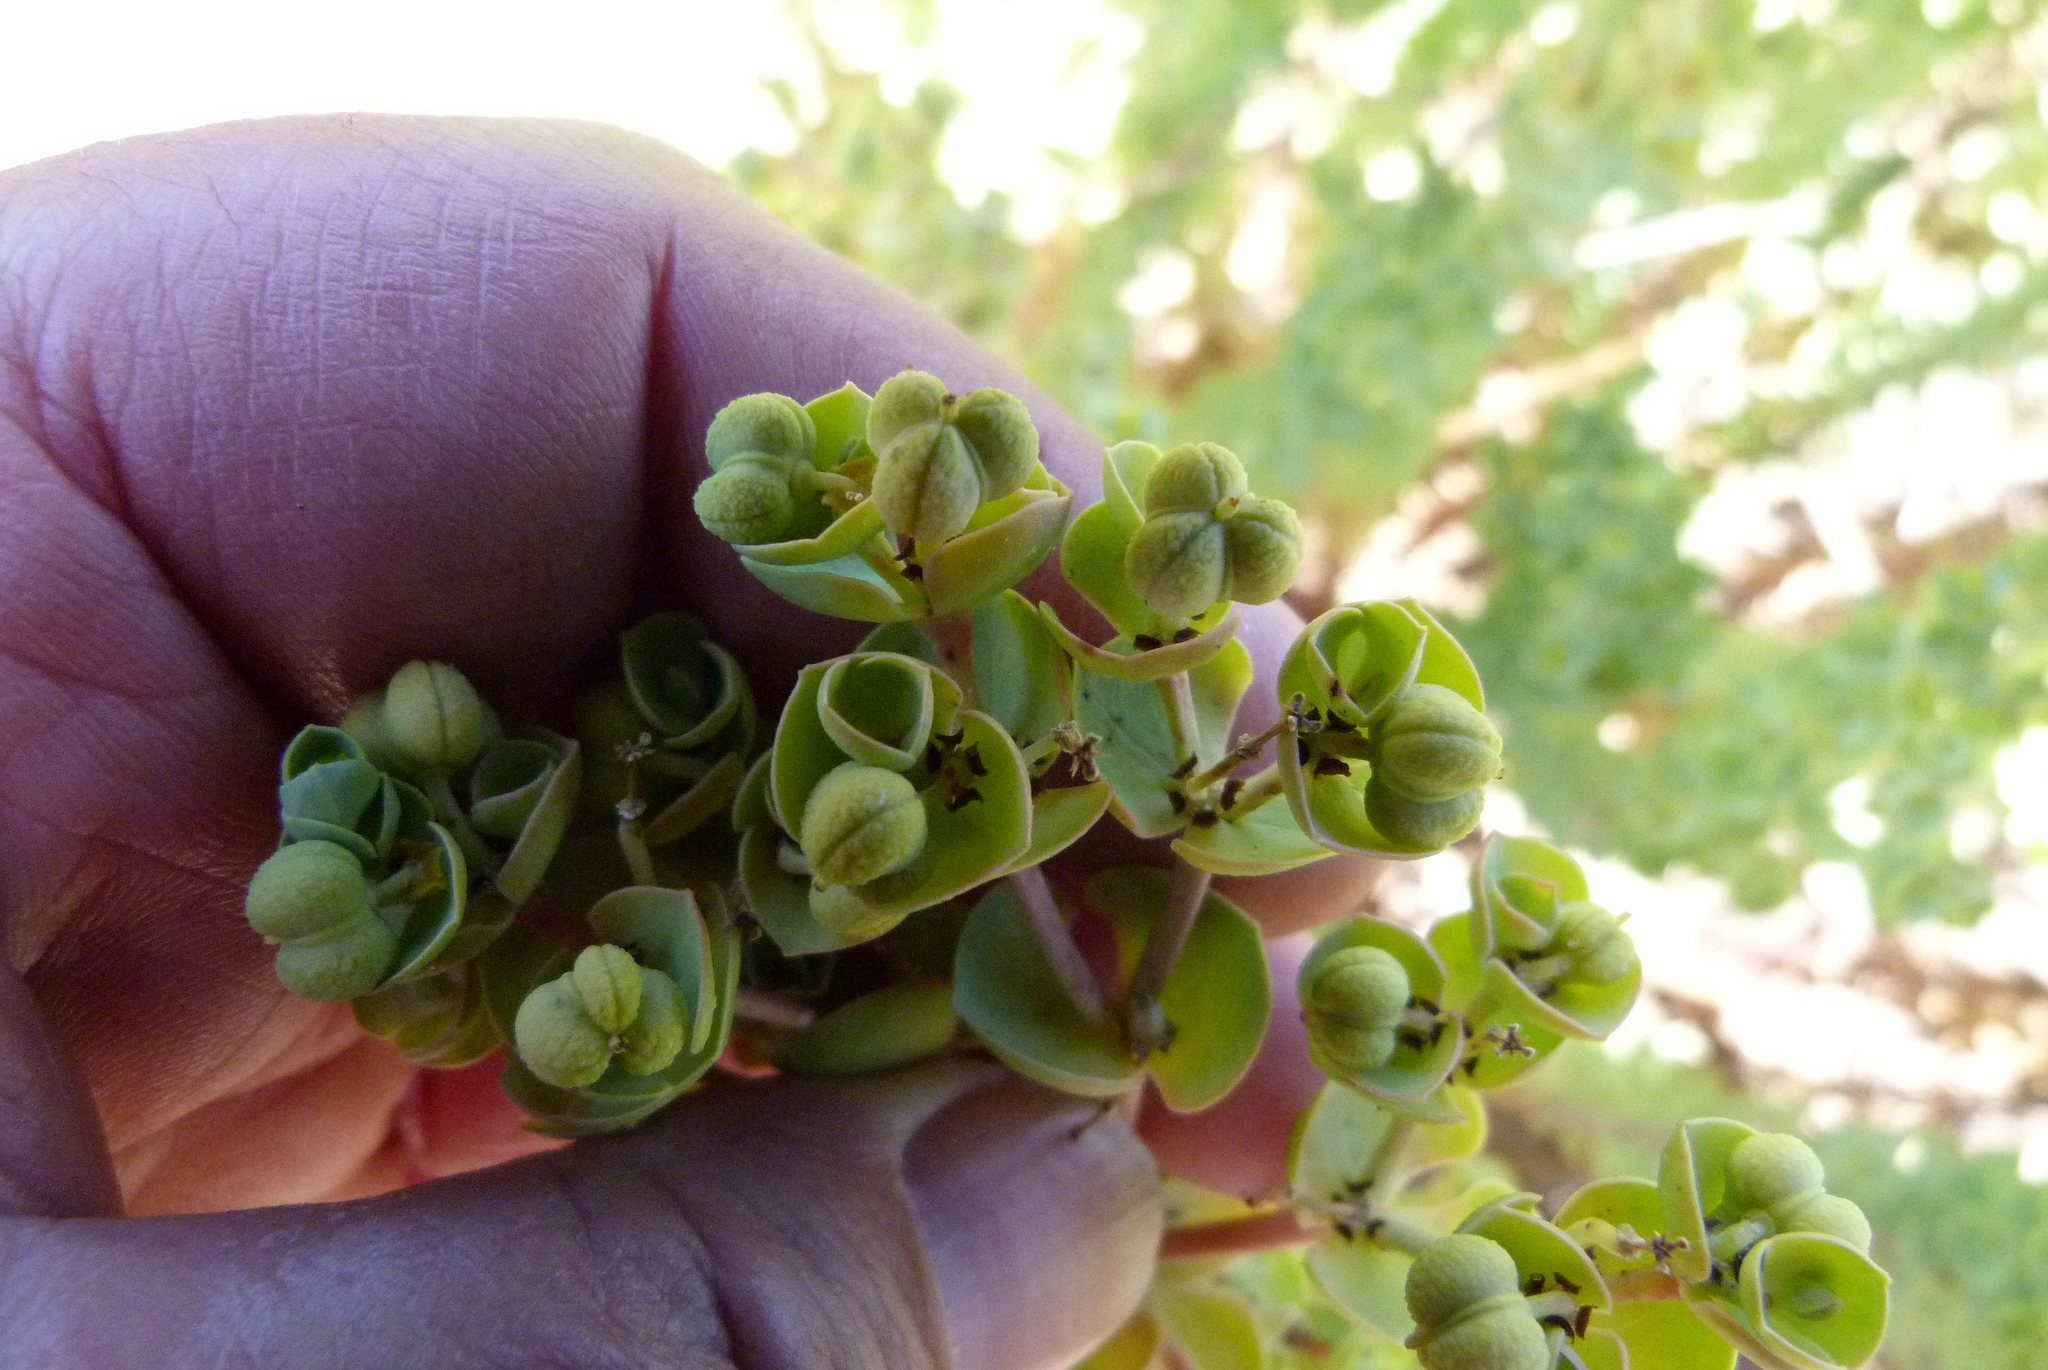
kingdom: Plantae
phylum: Tracheophyta
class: Magnoliopsida
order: Malpighiales
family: Euphorbiaceae
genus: Euphorbia
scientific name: Euphorbia paralias
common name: Sea spurge
